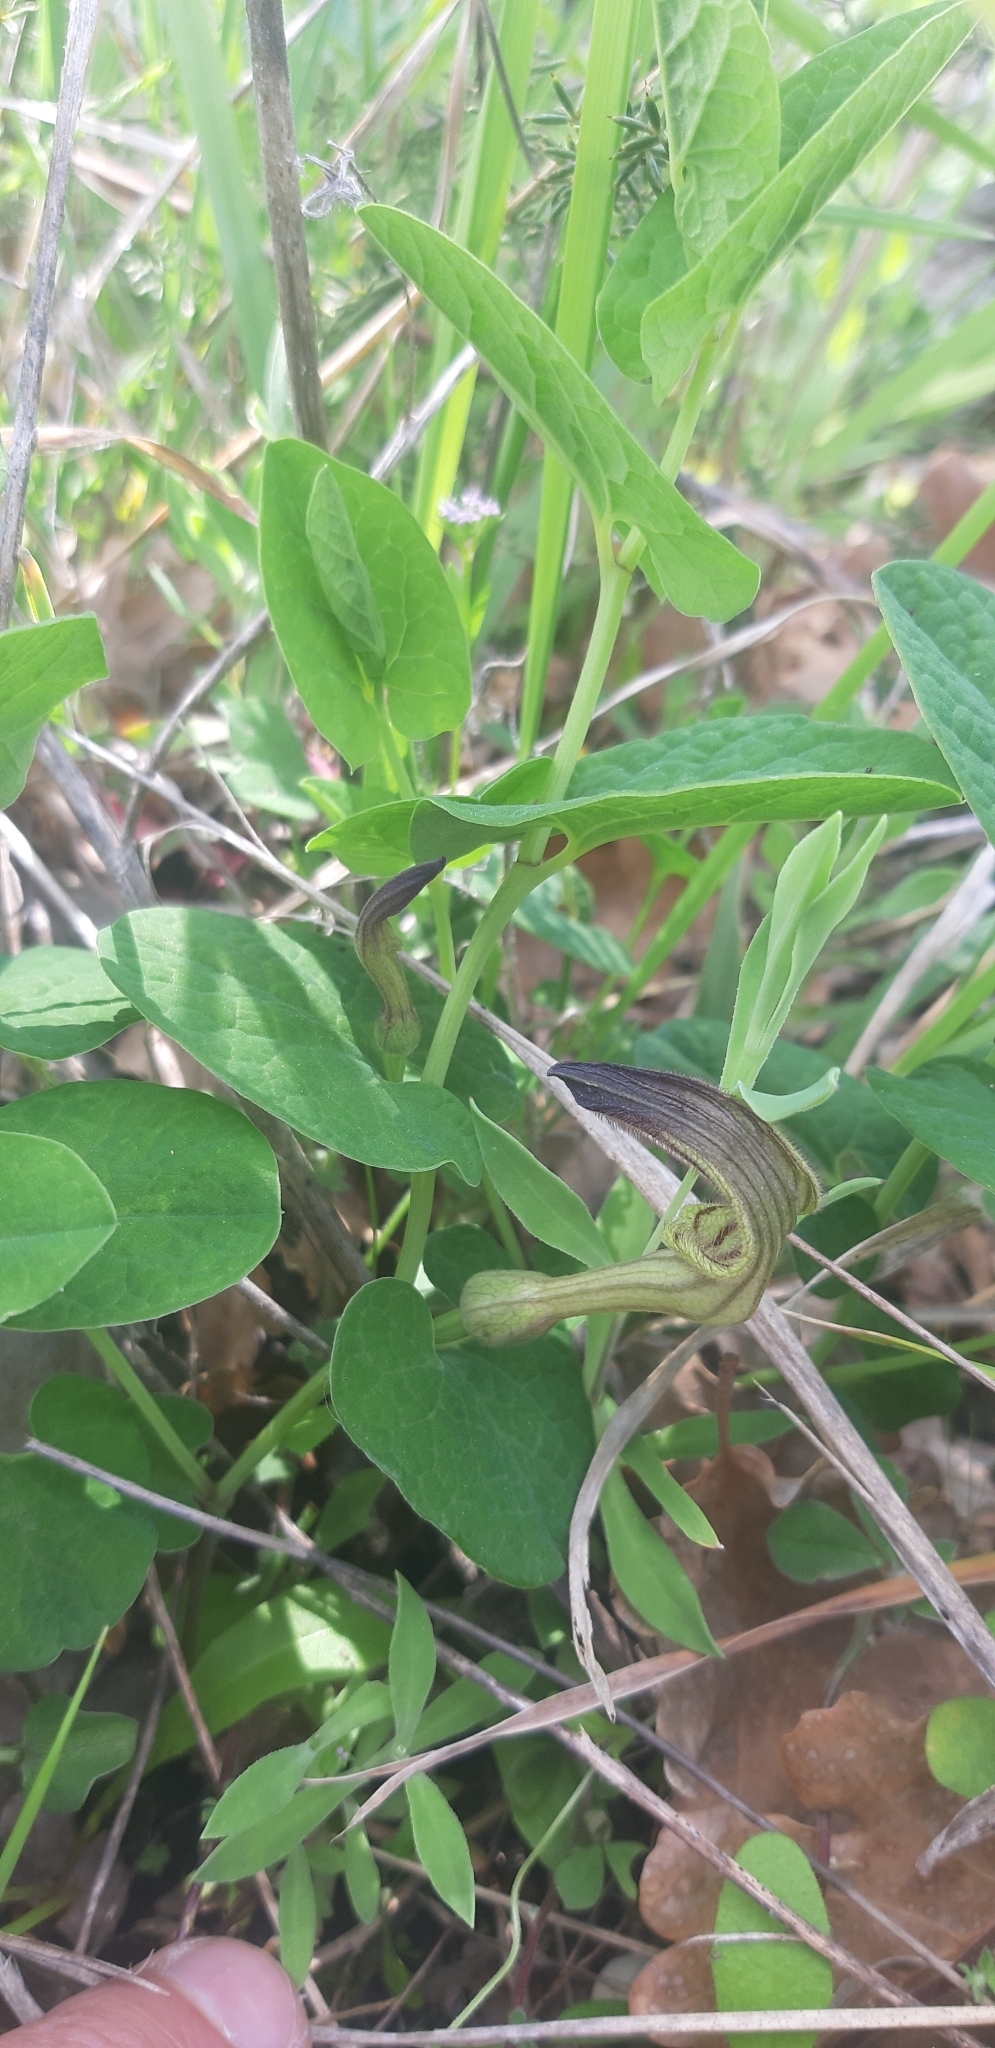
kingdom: Plantae
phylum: Tracheophyta
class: Magnoliopsida
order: Piperales
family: Aristolochiaceae
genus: Aristolochia
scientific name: Aristolochia clusii
